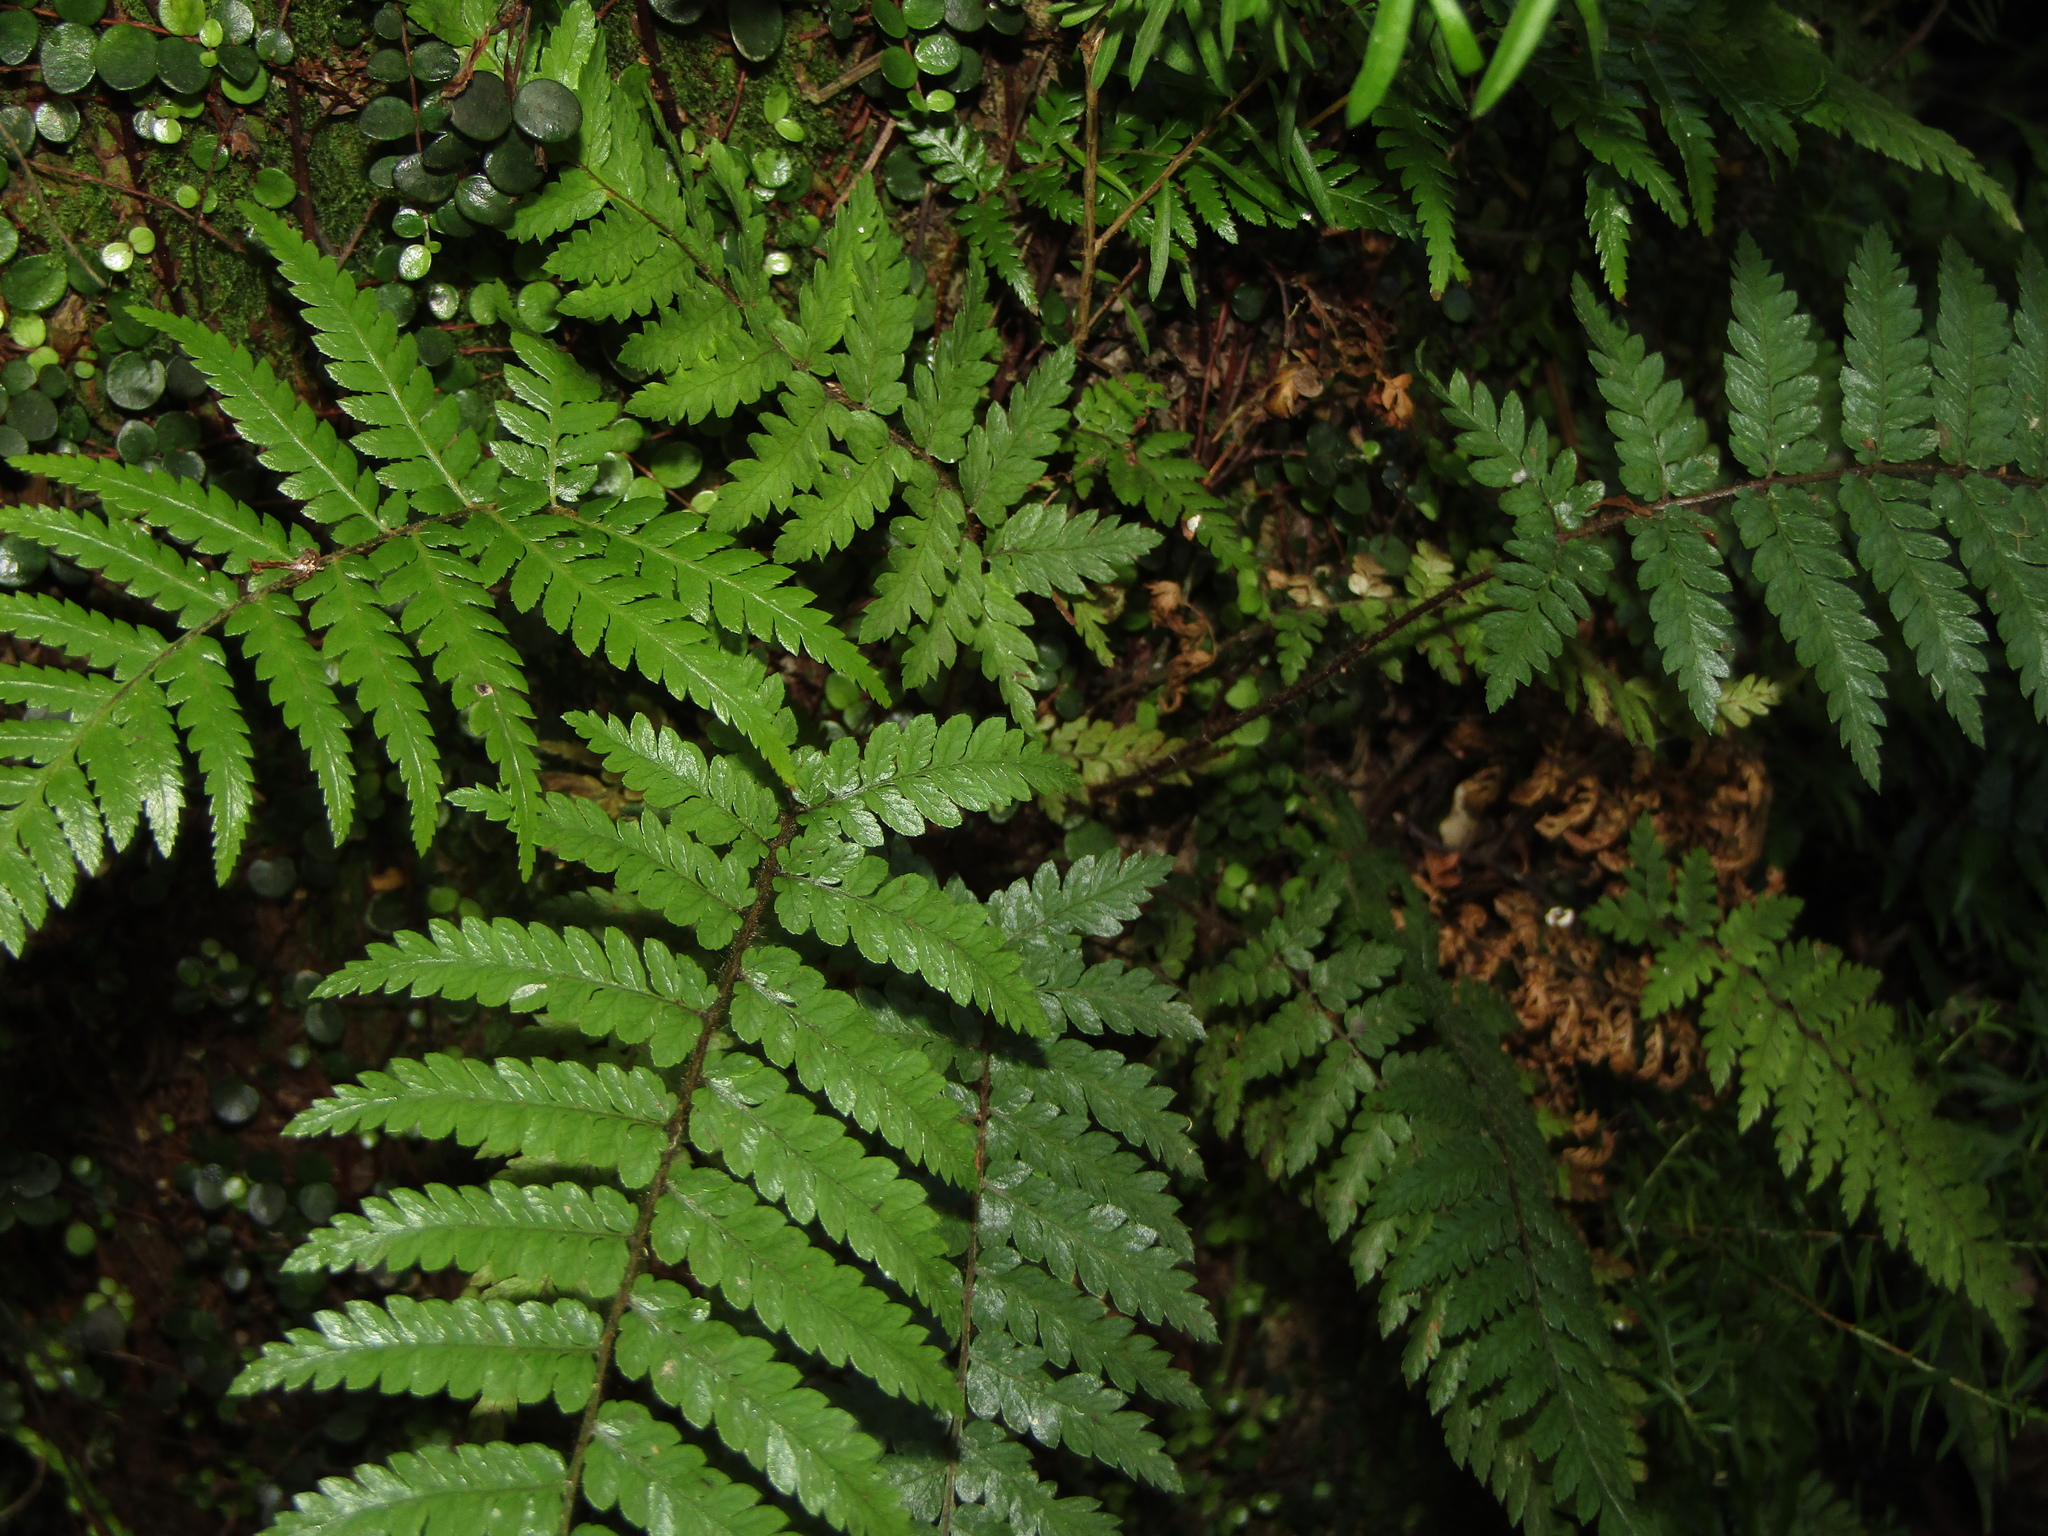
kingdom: Plantae
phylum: Tracheophyta
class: Polypodiopsida
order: Cyatheales
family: Dicksoniaceae
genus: Dicksonia
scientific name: Dicksonia squarrosa
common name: Hard treefern
